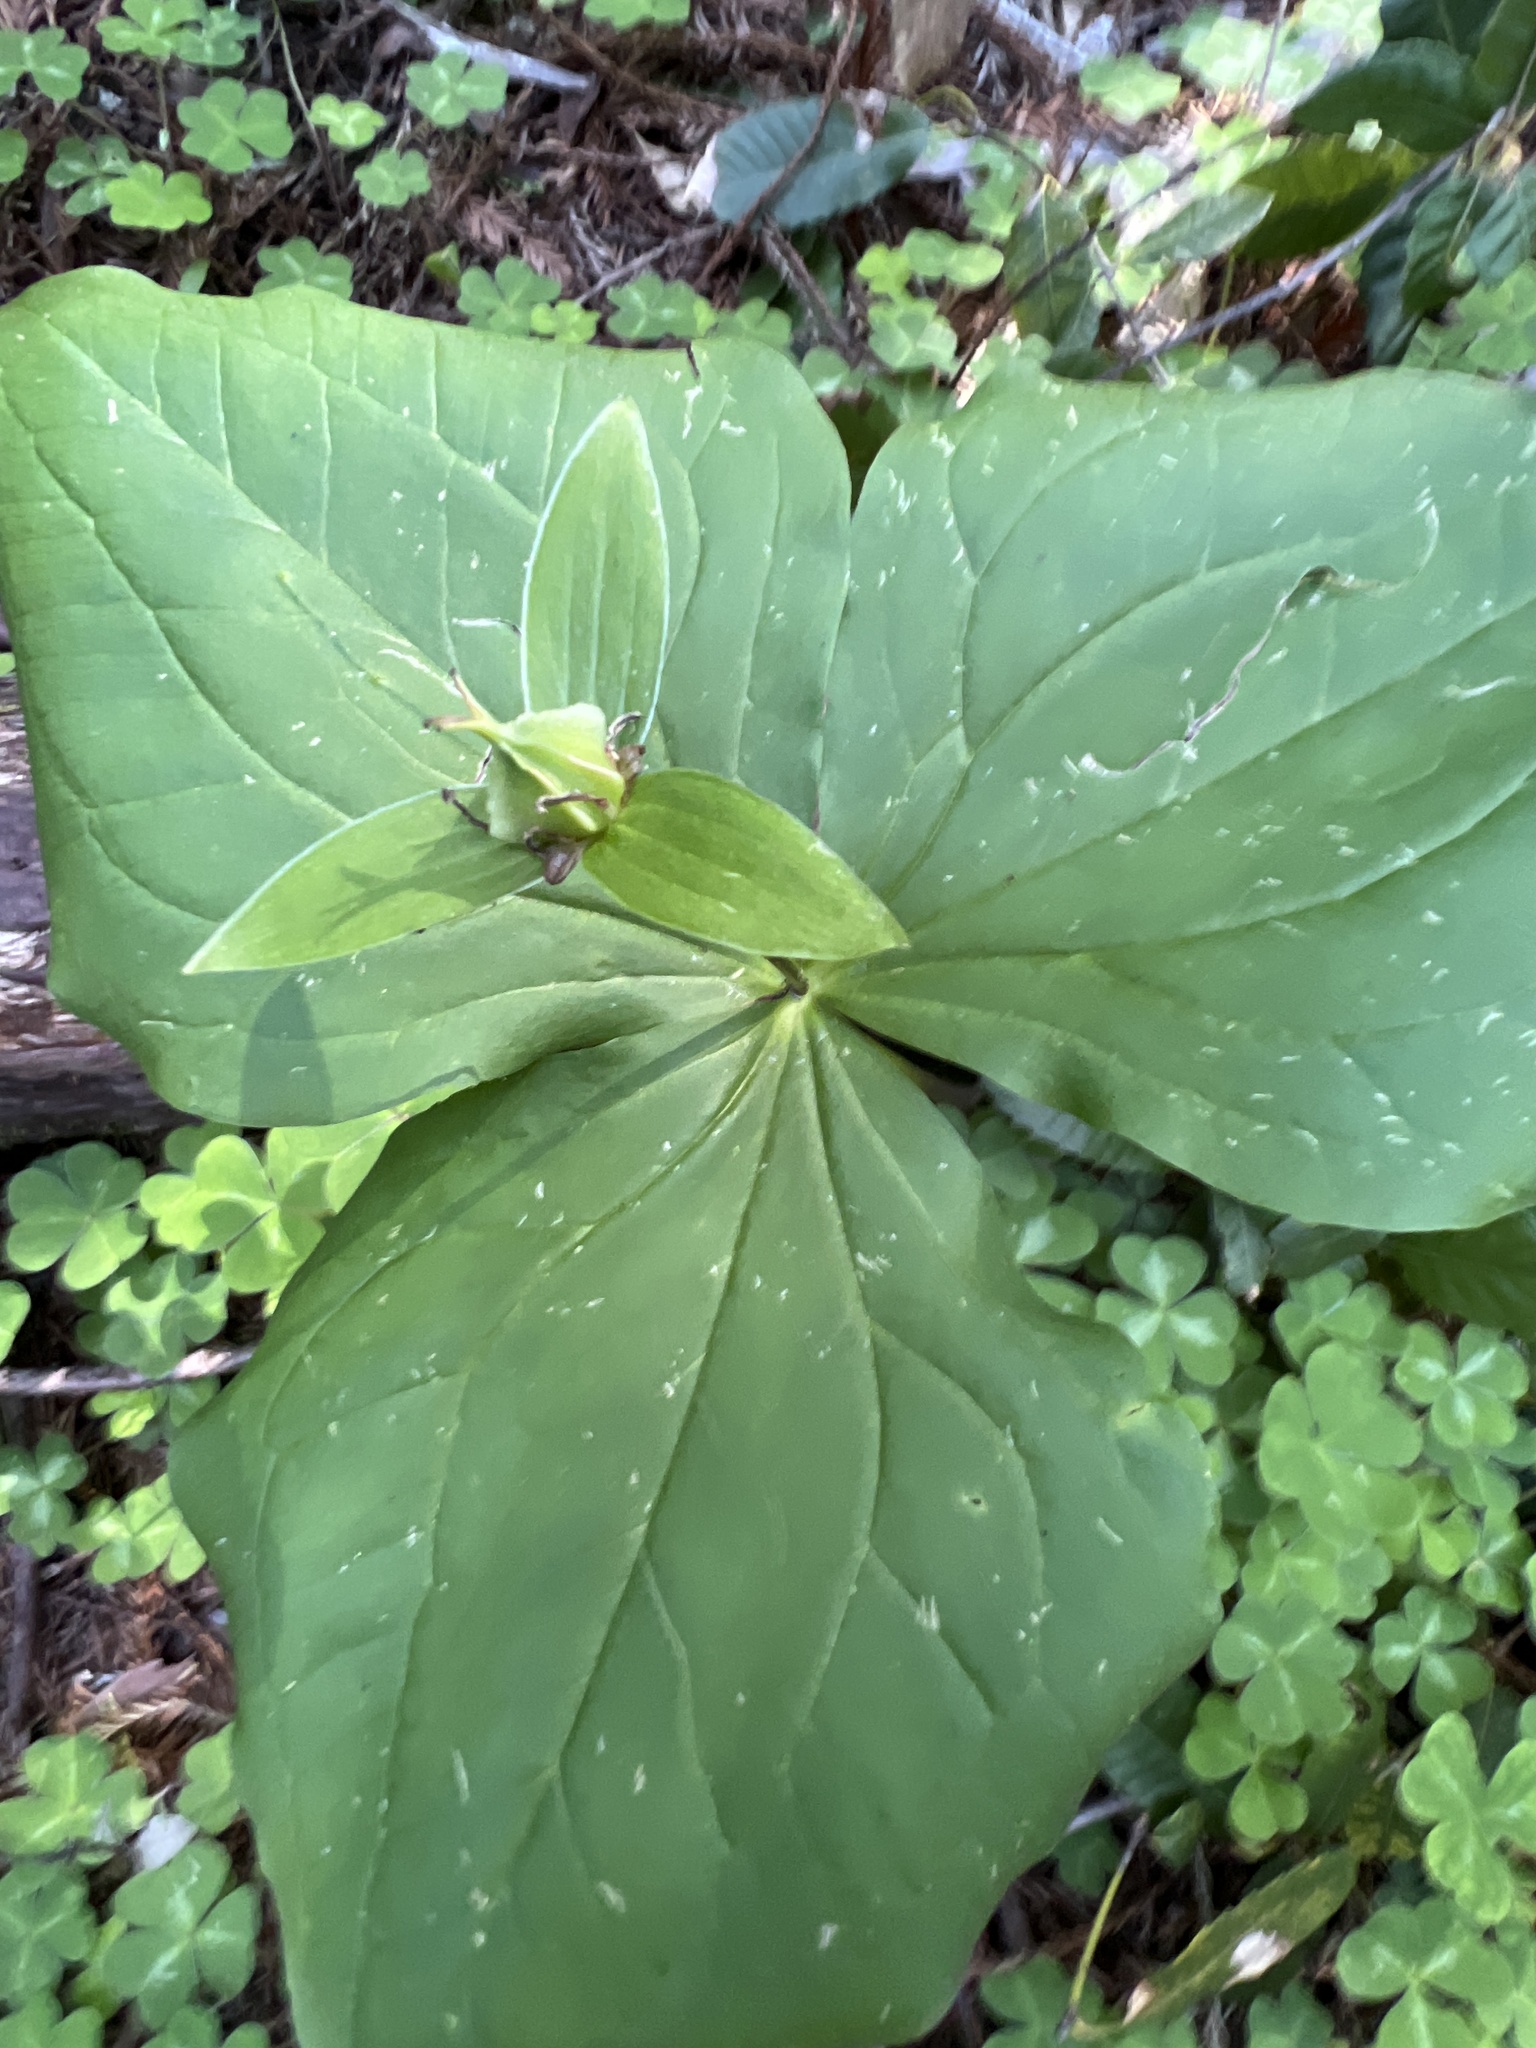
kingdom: Plantae
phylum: Tracheophyta
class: Liliopsida
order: Liliales
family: Melanthiaceae
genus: Trillium
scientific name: Trillium ovatum
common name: Pacific trillium
